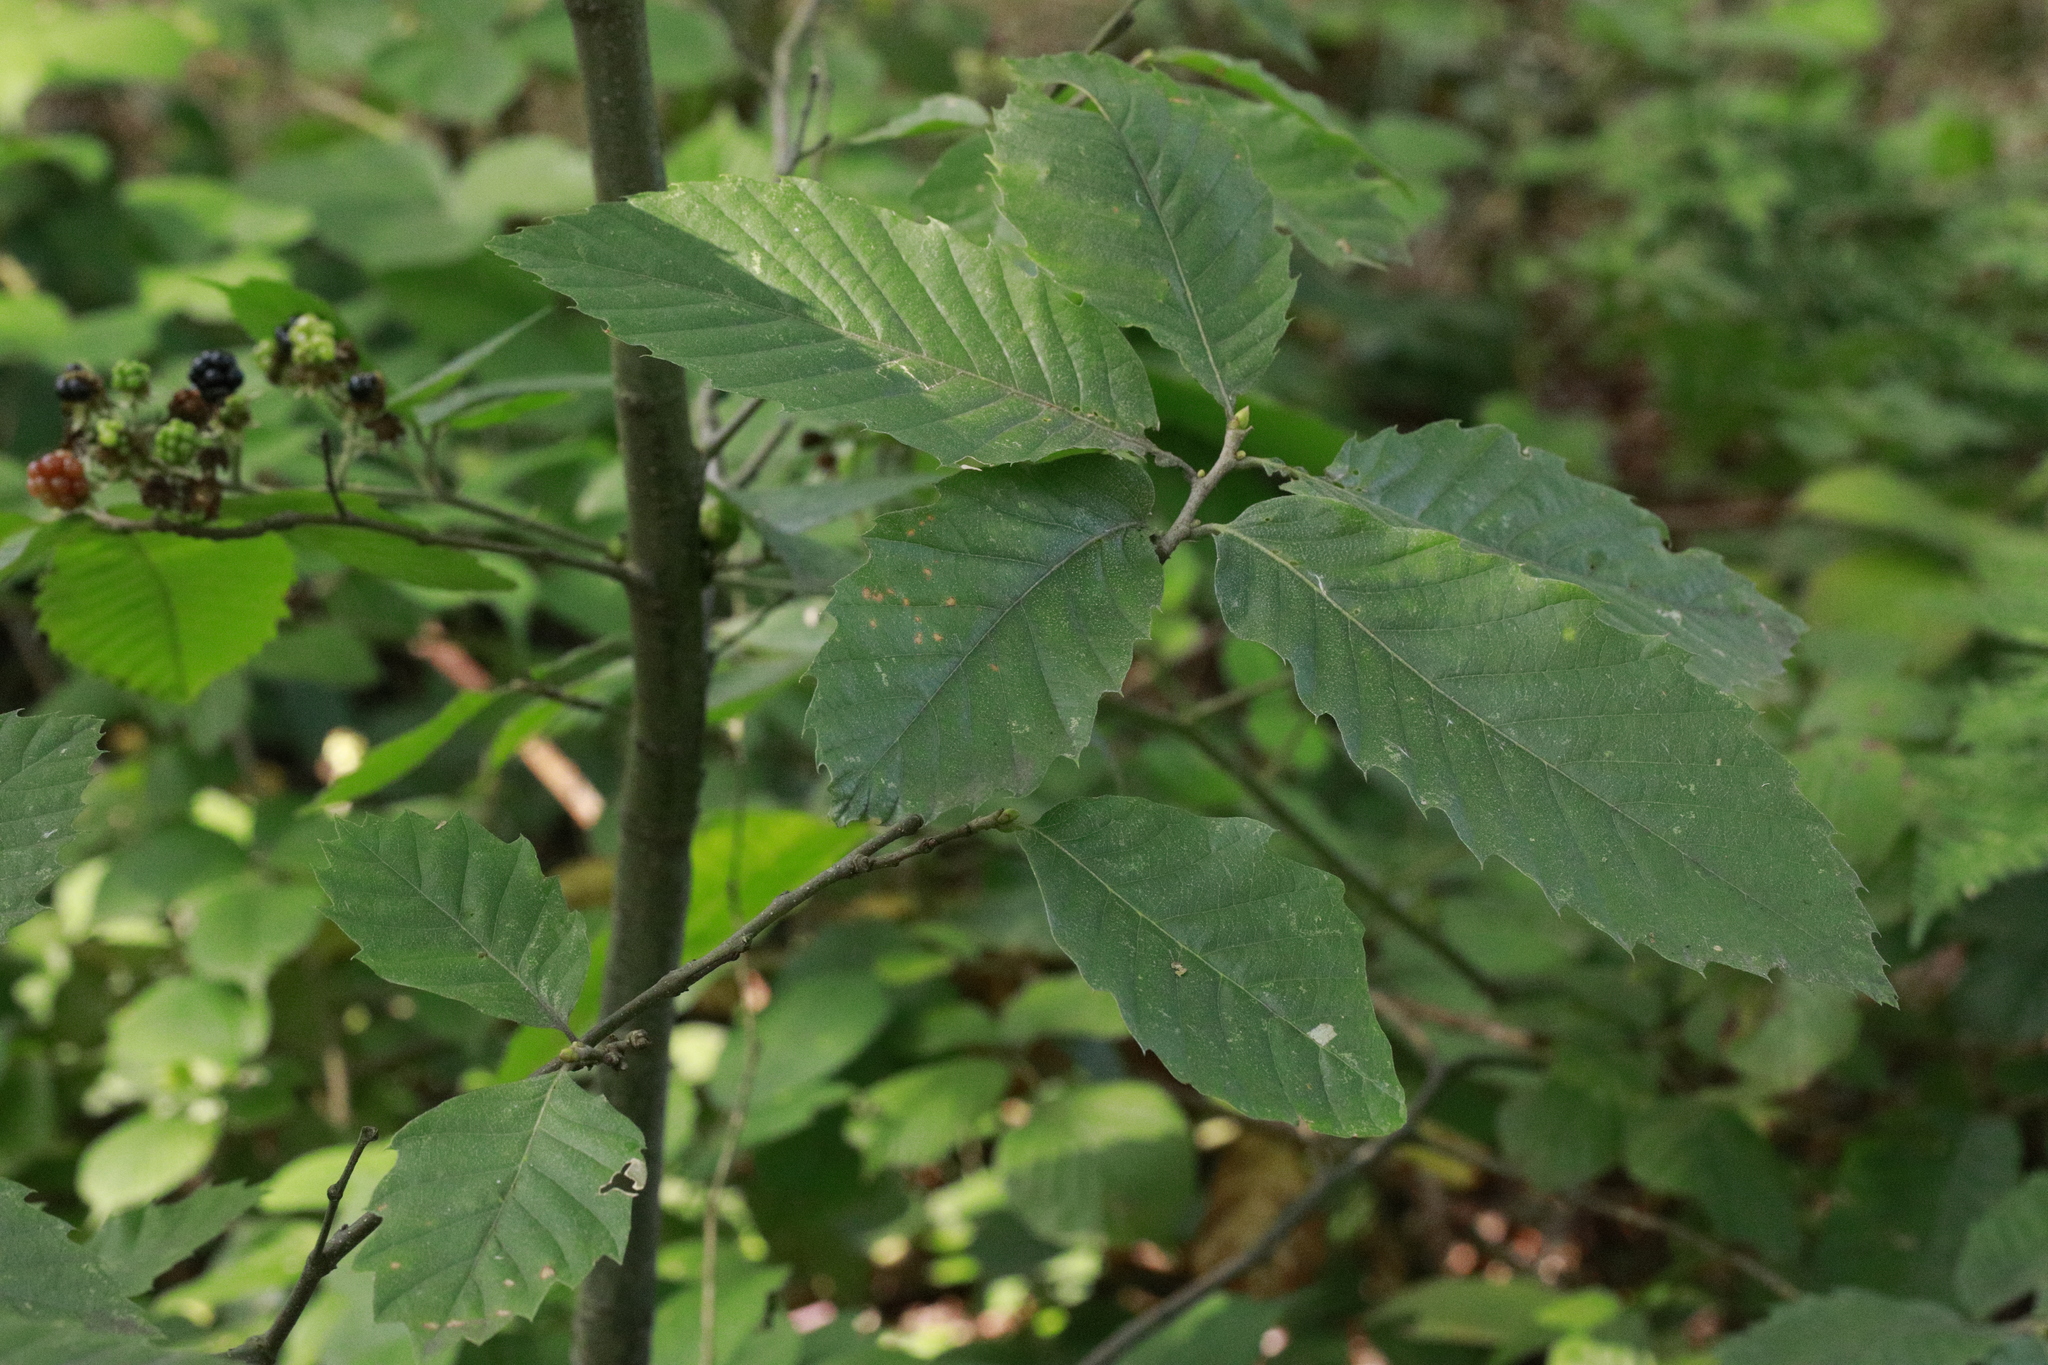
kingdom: Plantae
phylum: Tracheophyta
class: Magnoliopsida
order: Fagales
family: Betulaceae
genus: Carpinus
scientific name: Carpinus betulus
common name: Hornbeam
